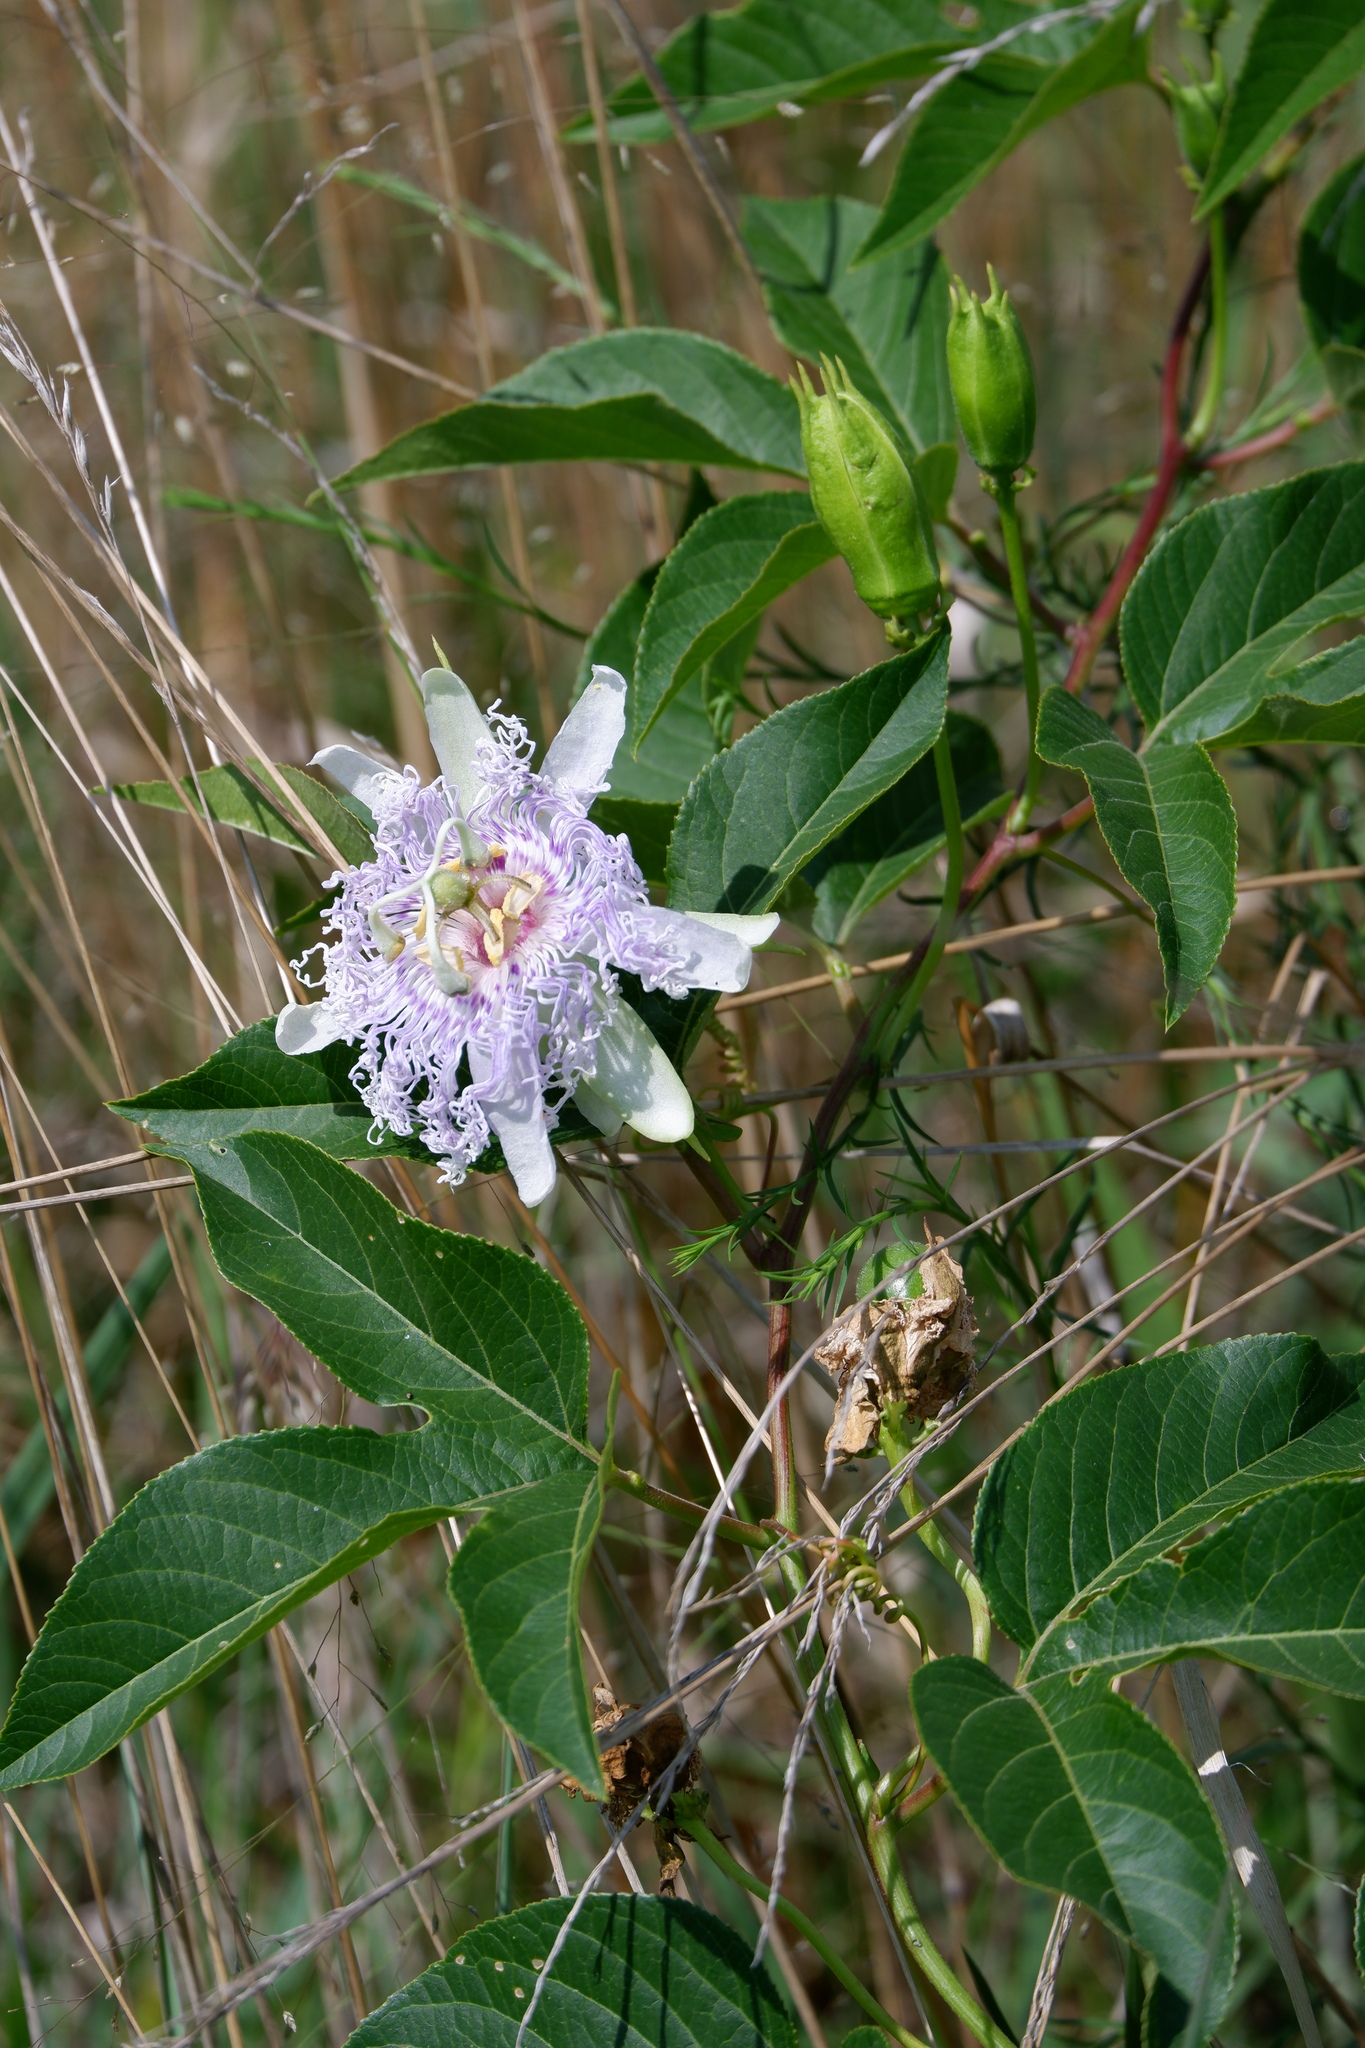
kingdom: Plantae
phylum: Tracheophyta
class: Magnoliopsida
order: Malpighiales
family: Passifloraceae
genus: Passiflora
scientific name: Passiflora incarnata
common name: Apricot-vine
